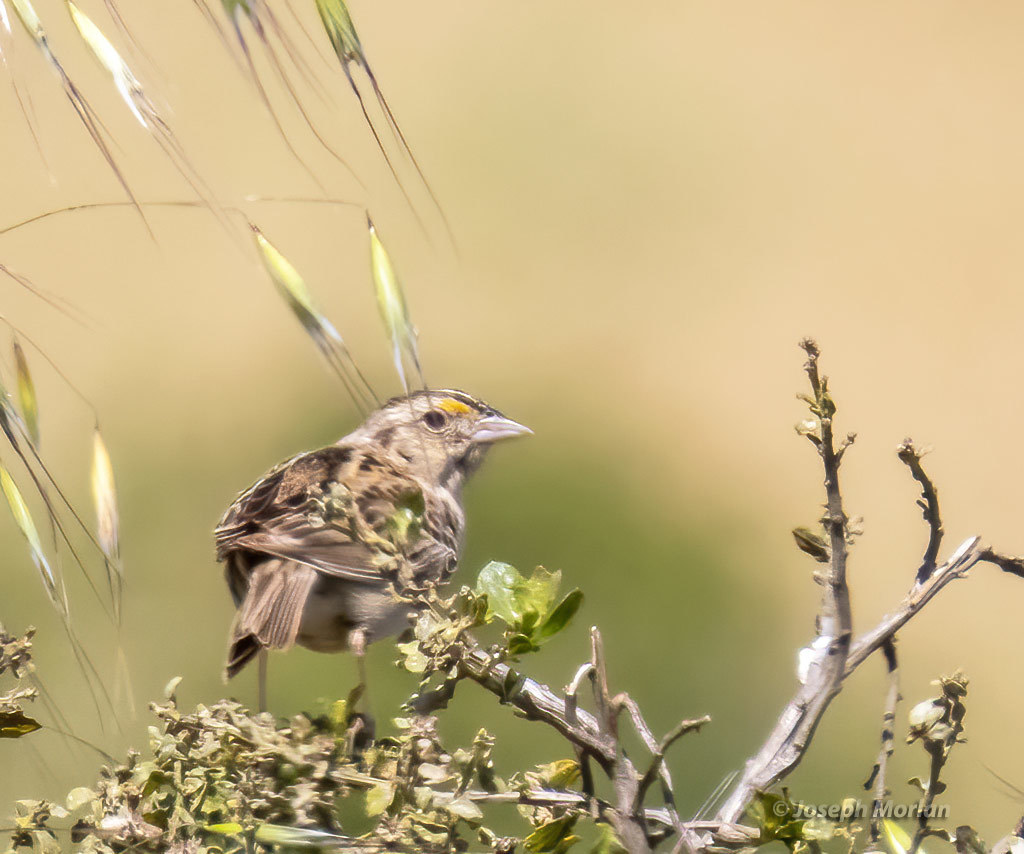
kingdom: Animalia
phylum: Chordata
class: Aves
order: Passeriformes
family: Passerellidae
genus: Ammodramus
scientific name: Ammodramus savannarum
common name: Grasshopper sparrow
